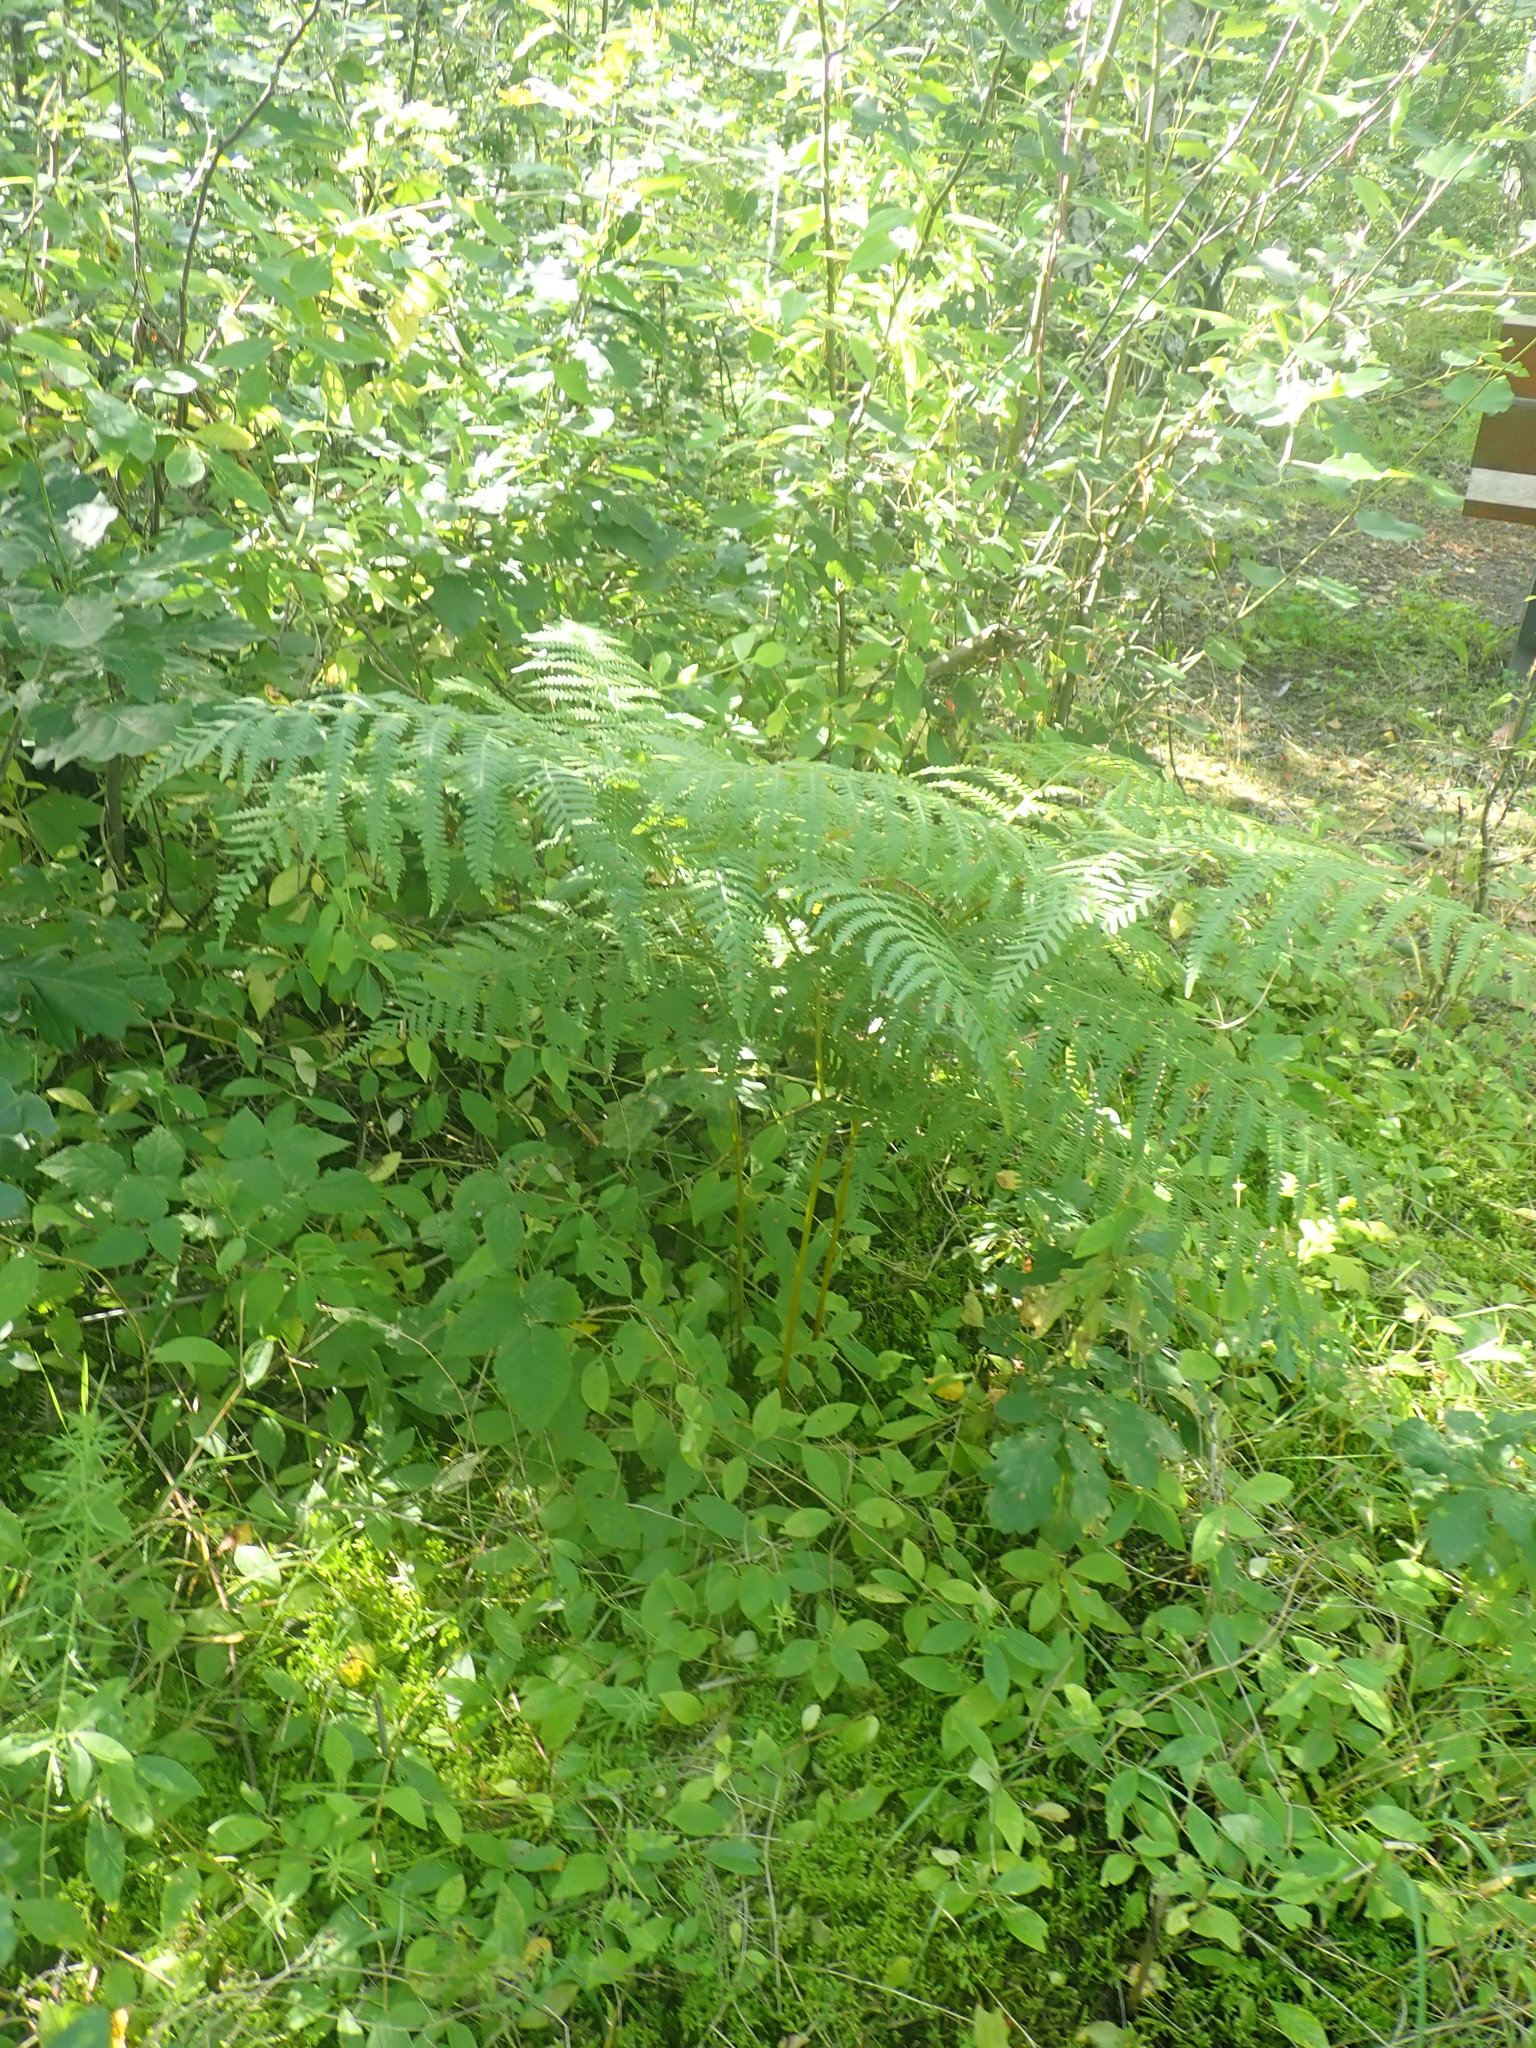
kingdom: Plantae
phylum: Tracheophyta
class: Polypodiopsida
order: Polypodiales
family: Dennstaedtiaceae
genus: Pteridium
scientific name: Pteridium aquilinum
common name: Bracken
